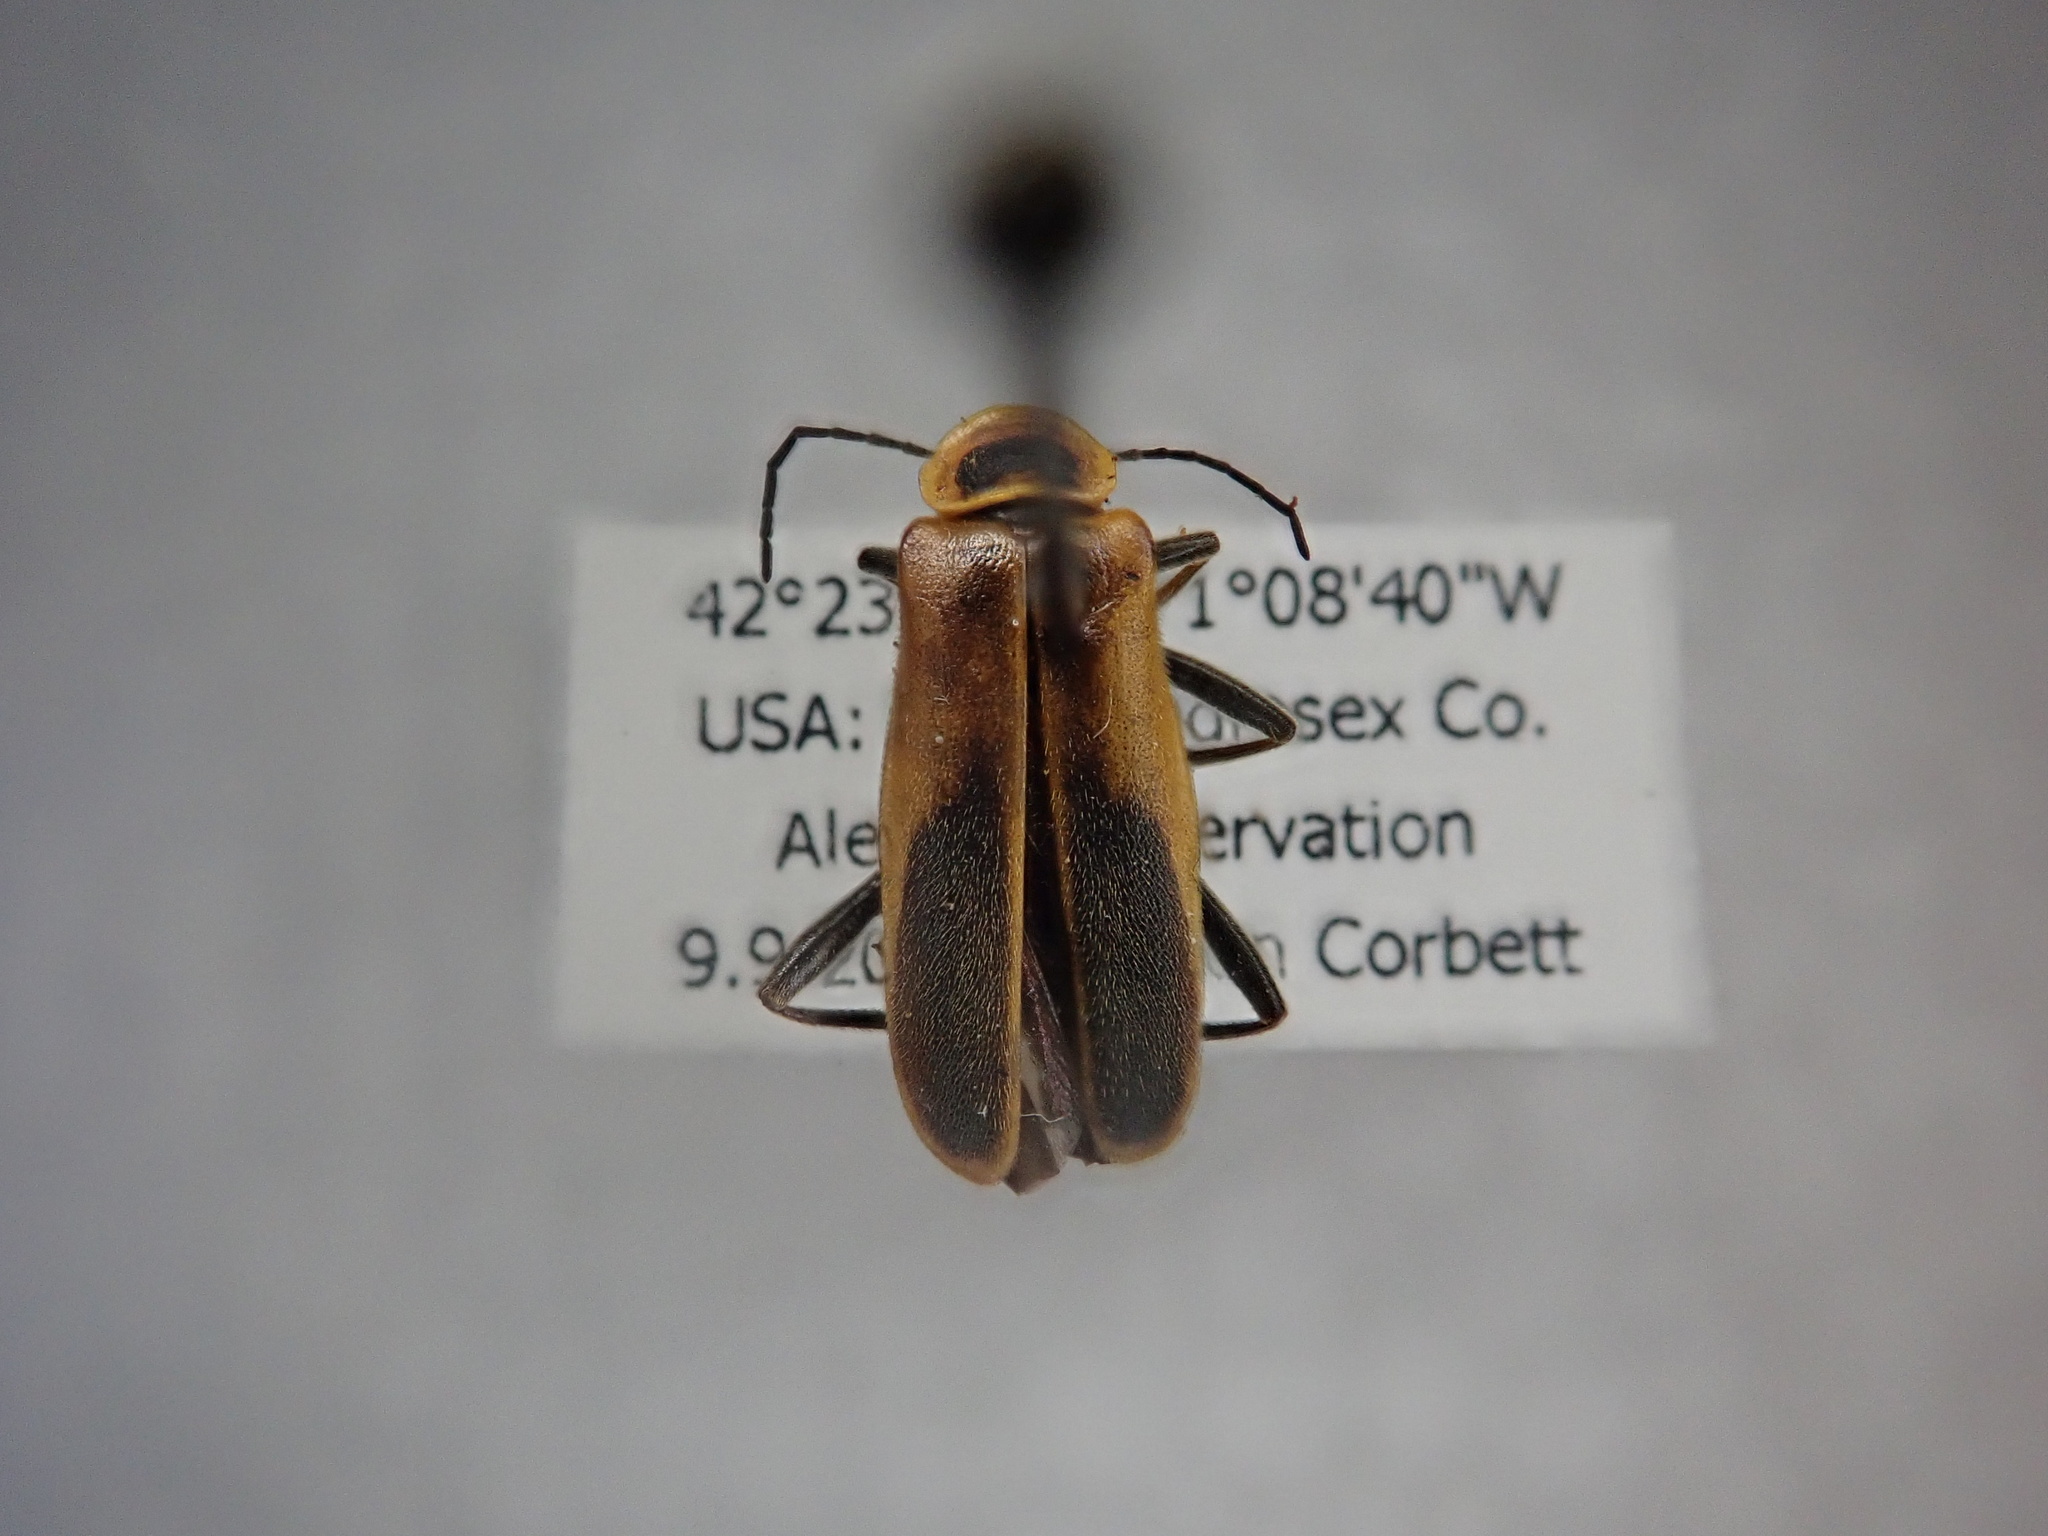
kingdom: Animalia
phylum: Arthropoda
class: Insecta
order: Coleoptera
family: Cantharidae
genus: Chauliognathus
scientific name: Chauliognathus pensylvanicus
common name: Goldenrod soldier beetle
